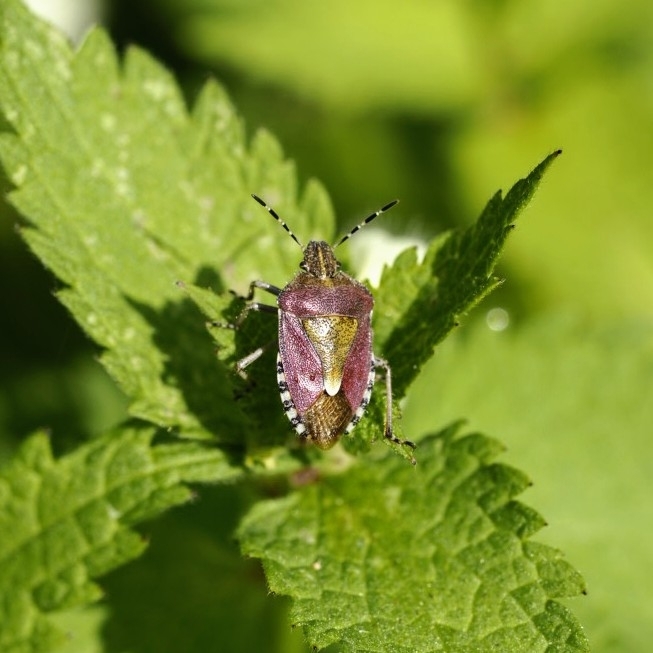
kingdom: Animalia
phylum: Arthropoda
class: Insecta
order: Hemiptera
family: Pentatomidae
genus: Dolycoris
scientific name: Dolycoris baccarum
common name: Sloe bug
